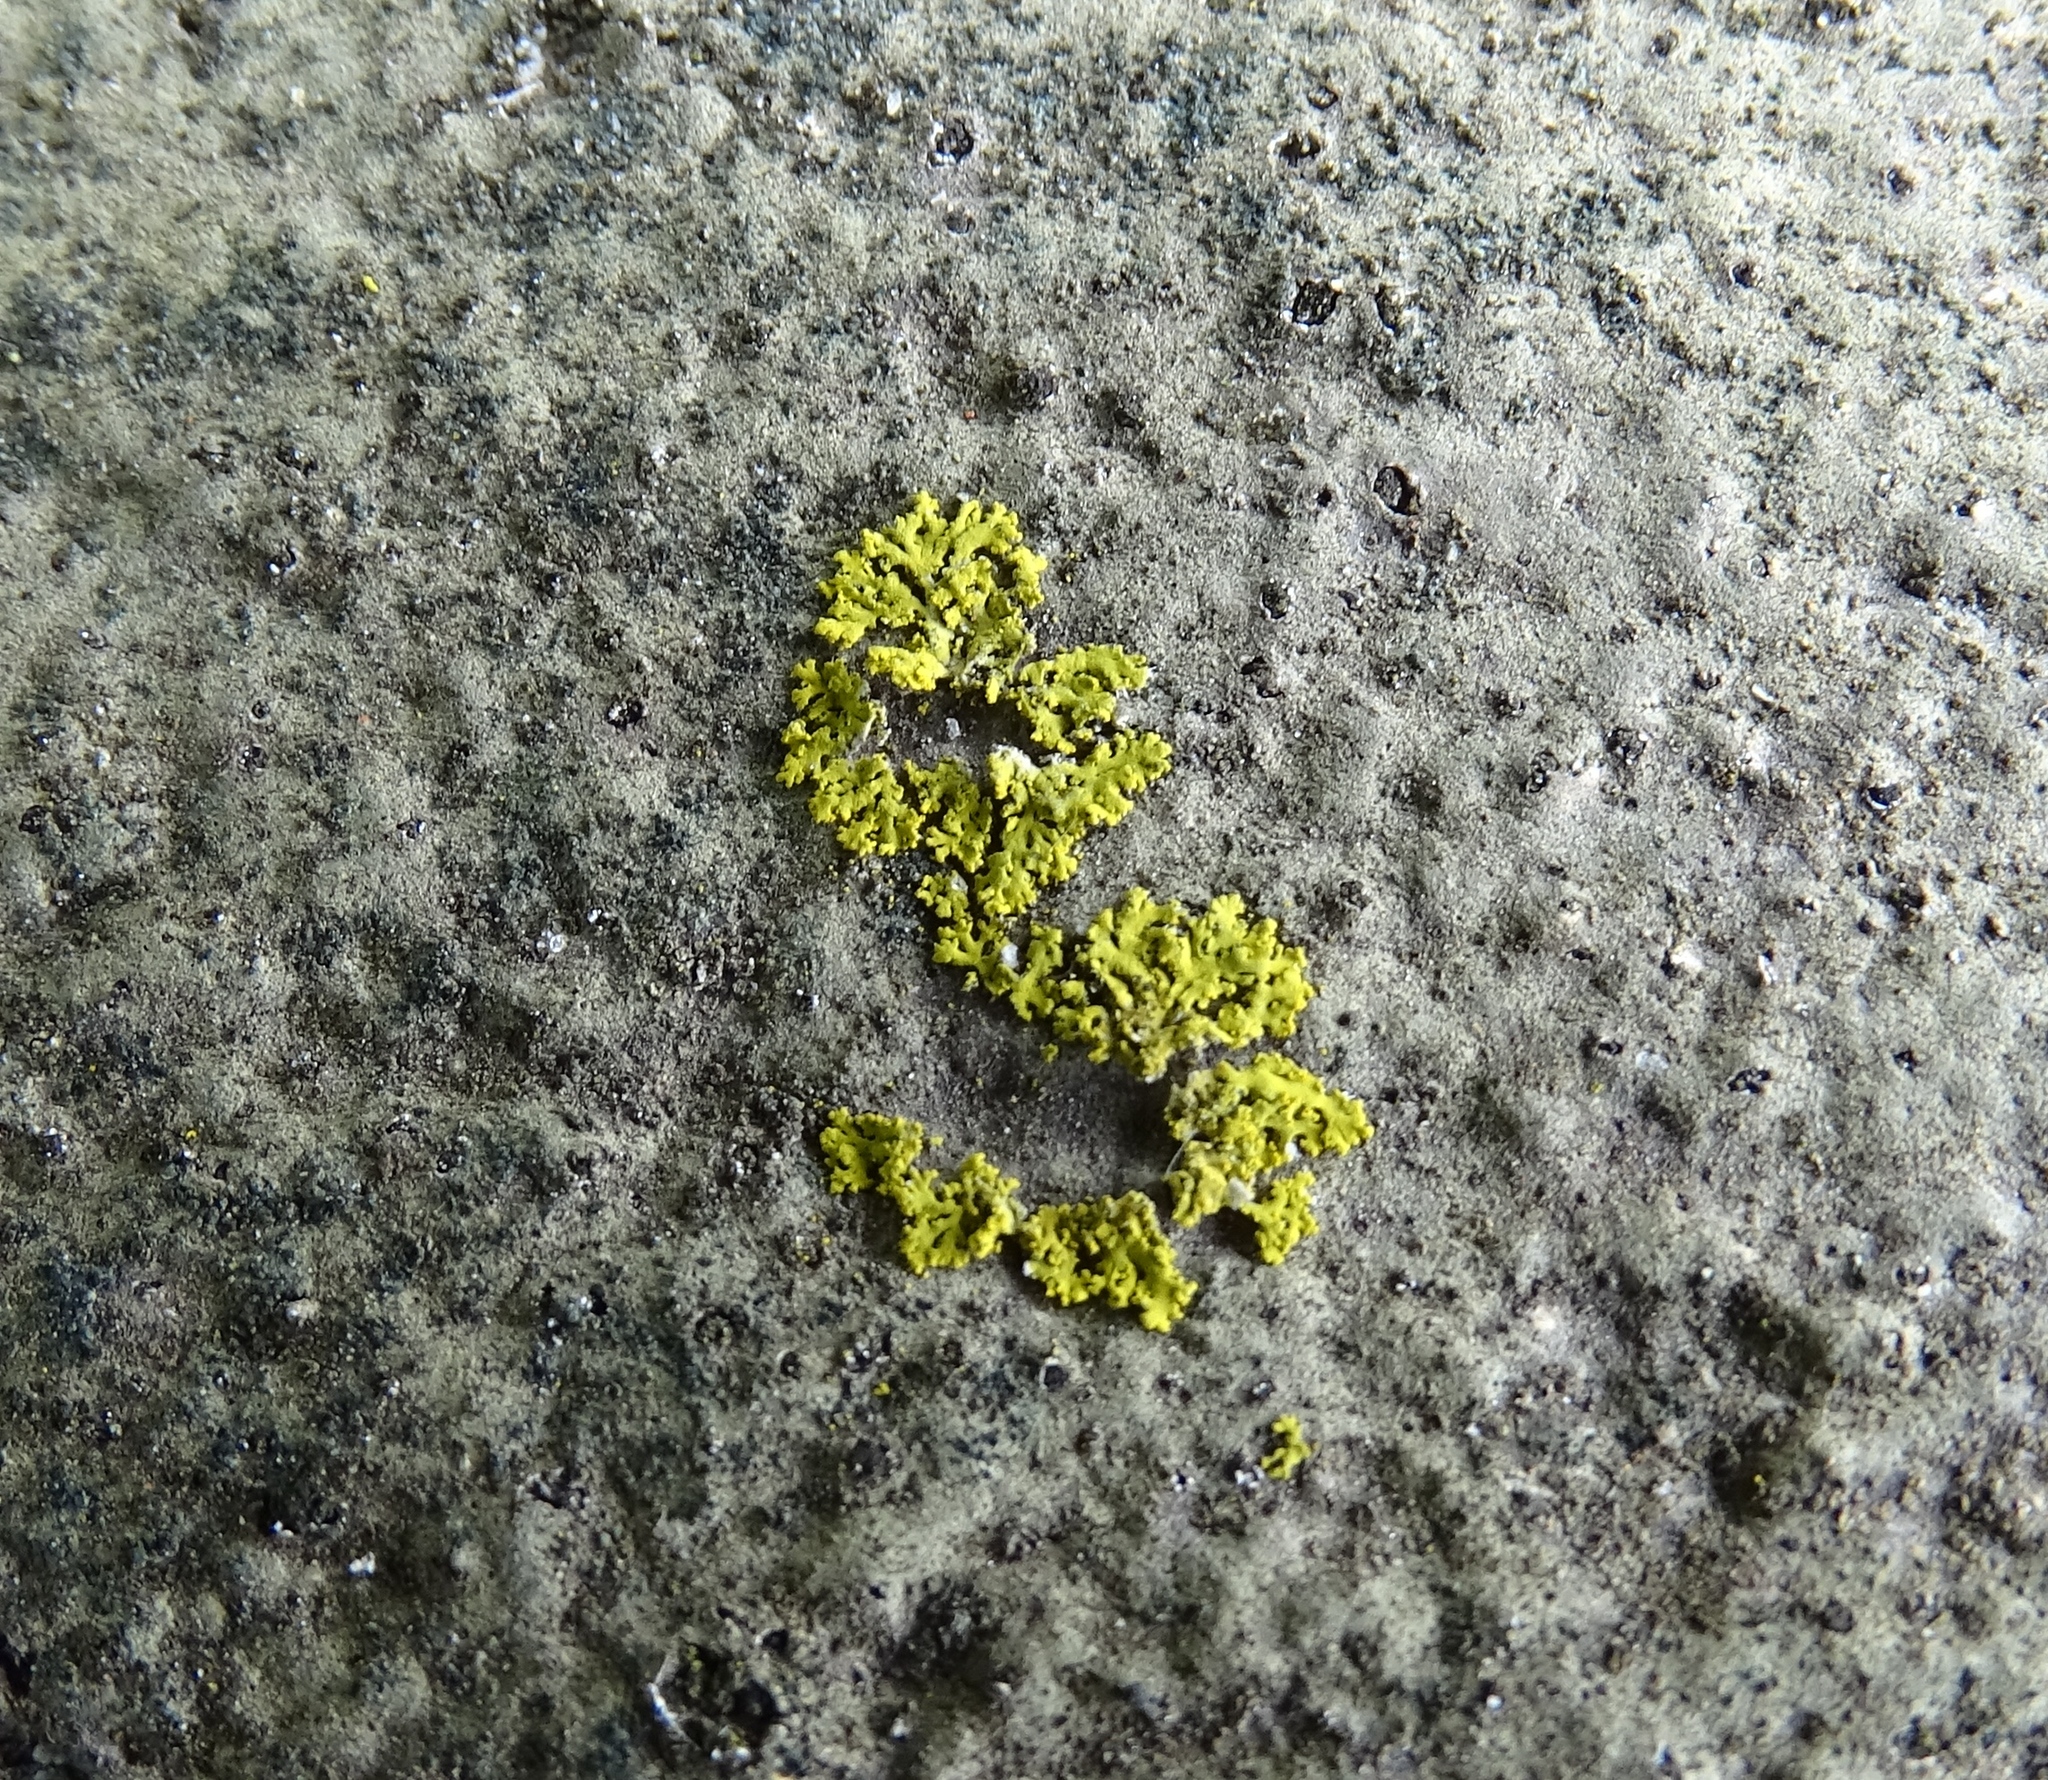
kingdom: Fungi
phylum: Ascomycota
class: Candelariomycetes
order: Candelariales
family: Candelariaceae
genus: Candelaria
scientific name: Candelaria concolor
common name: Candleflame lichen
